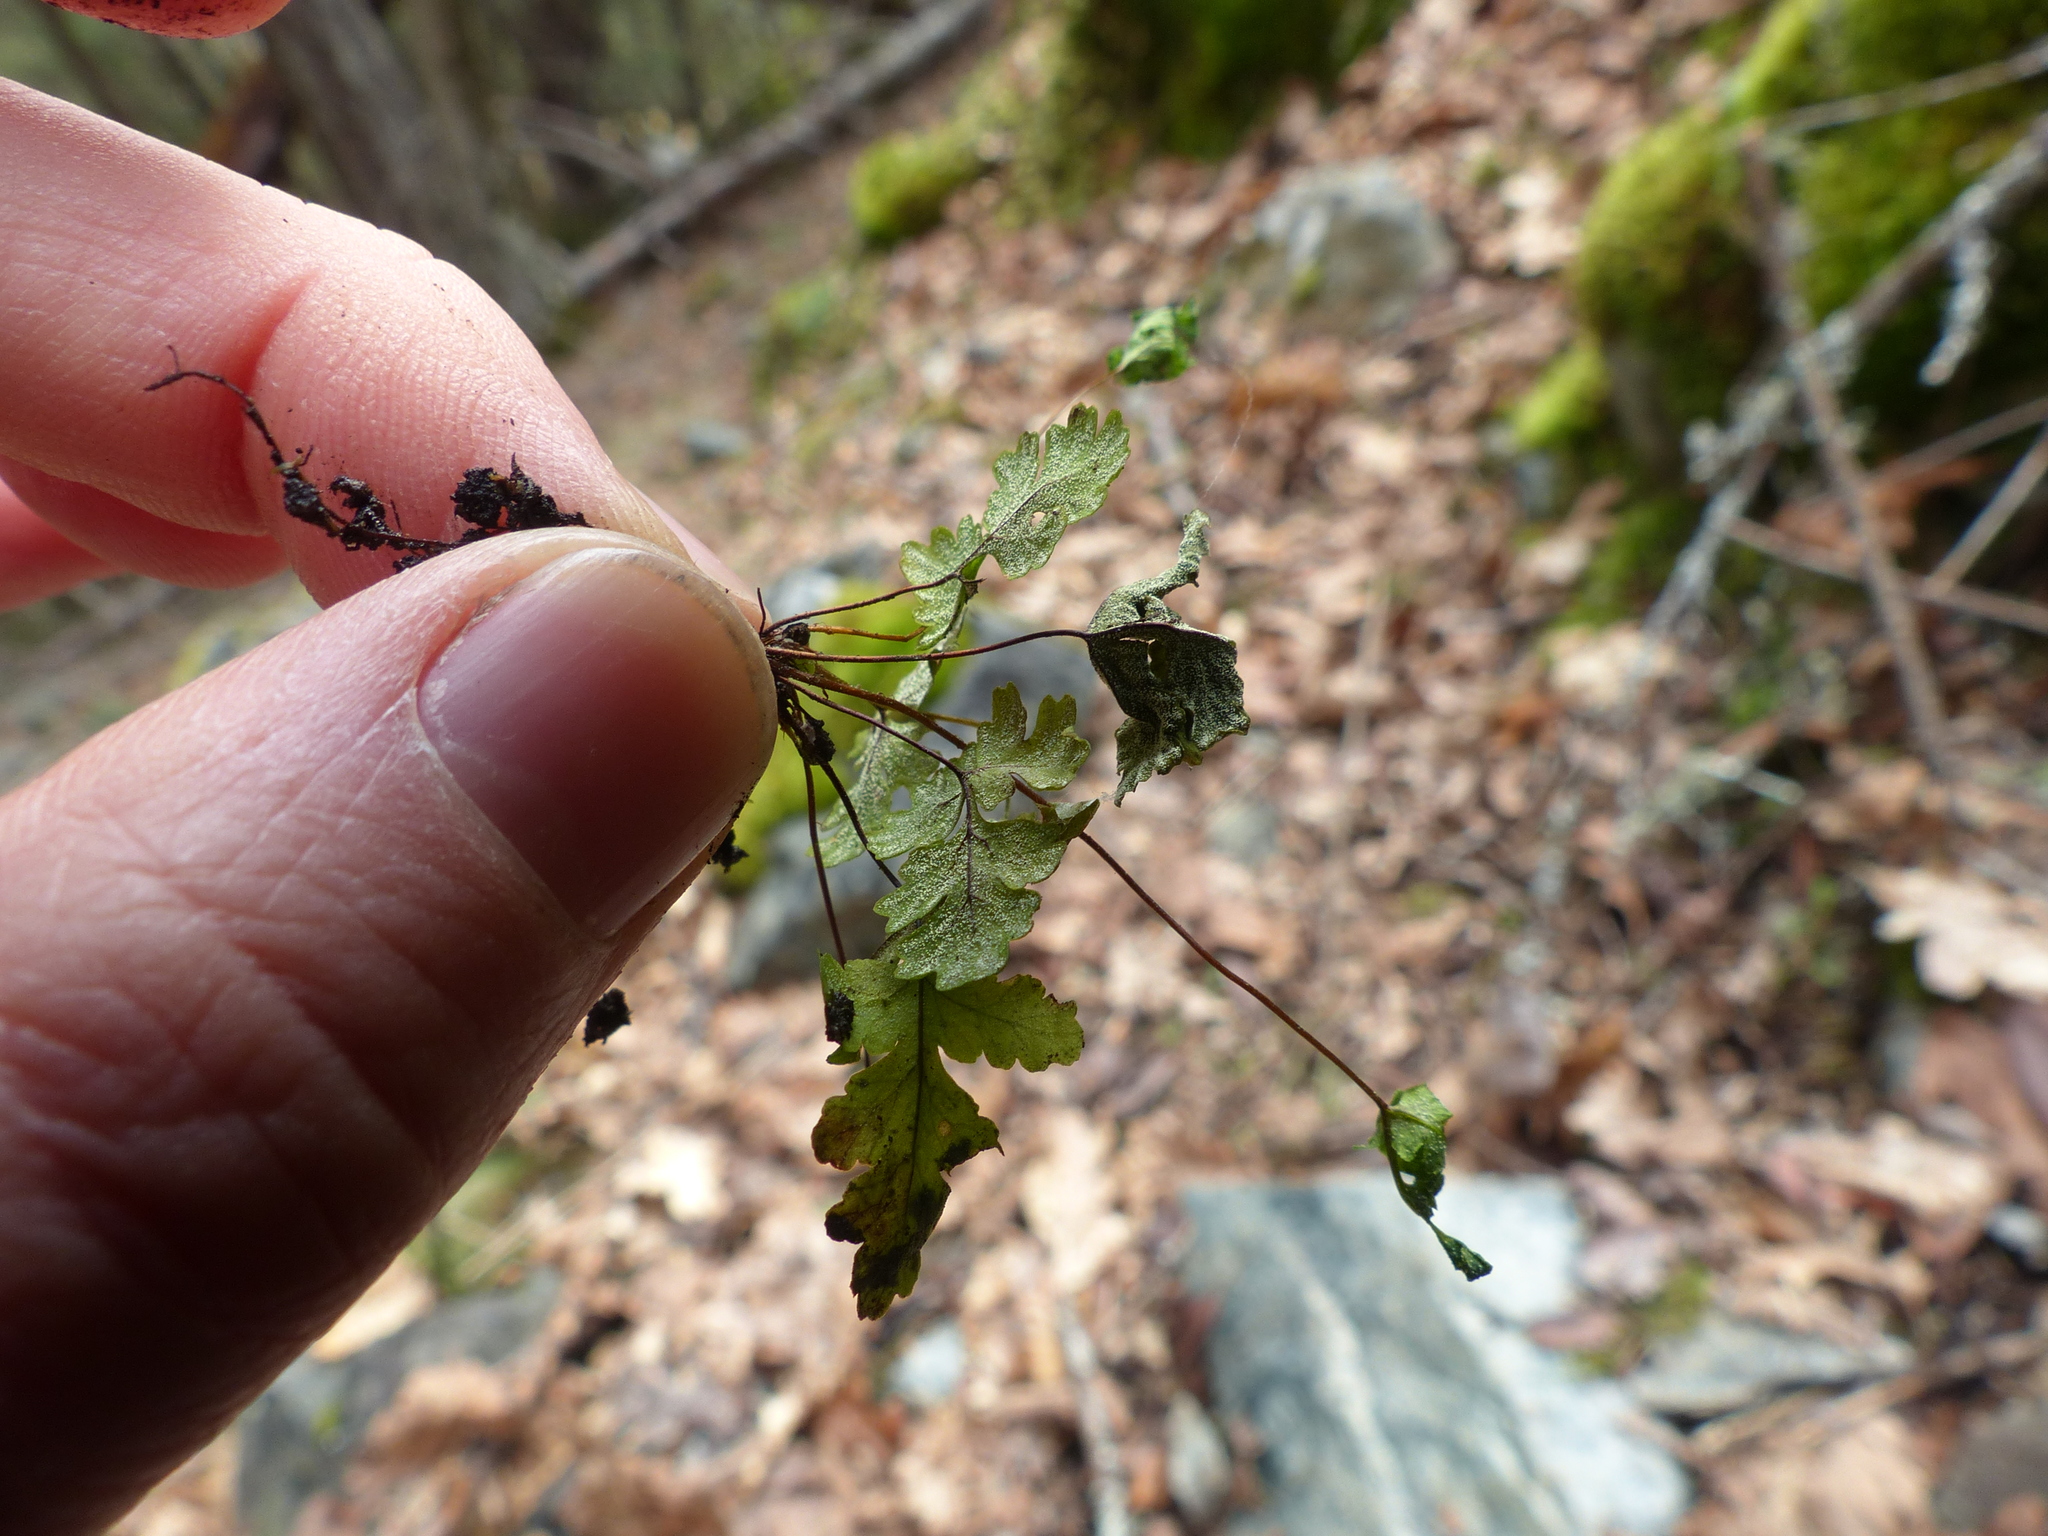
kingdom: Plantae
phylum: Tracheophyta
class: Polypodiopsida
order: Polypodiales
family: Pteridaceae
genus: Pentagramma
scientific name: Pentagramma triangularis
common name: Gold fern
